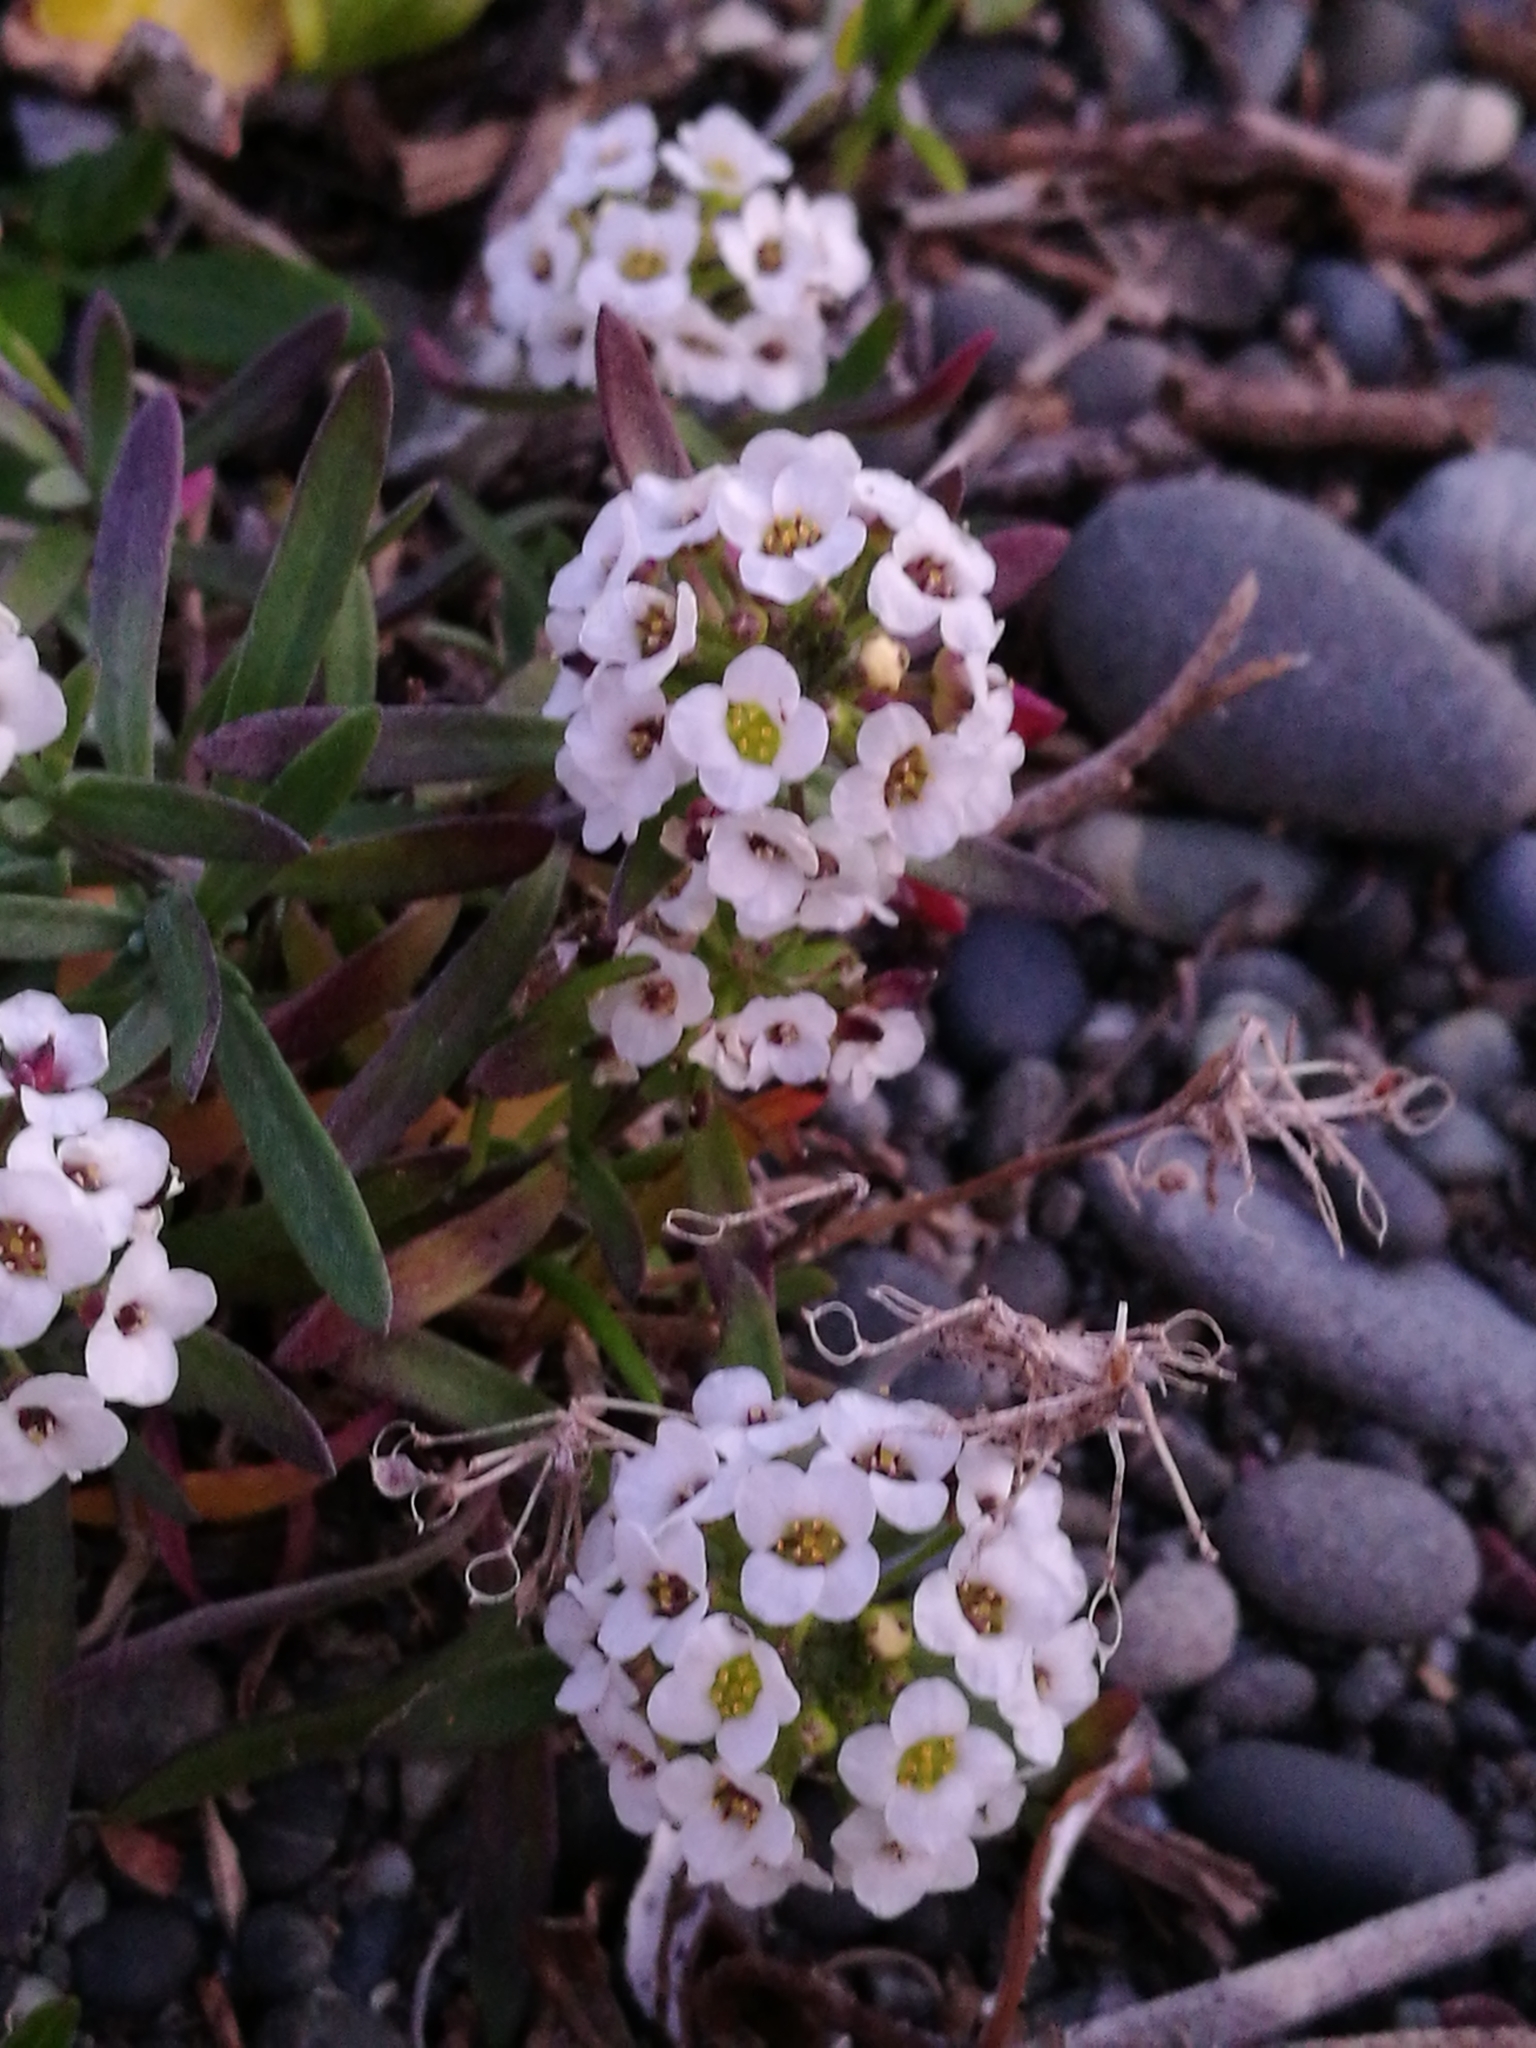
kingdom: Plantae
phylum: Tracheophyta
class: Magnoliopsida
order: Brassicales
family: Brassicaceae
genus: Lobularia
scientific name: Lobularia maritima
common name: Sweet alison
